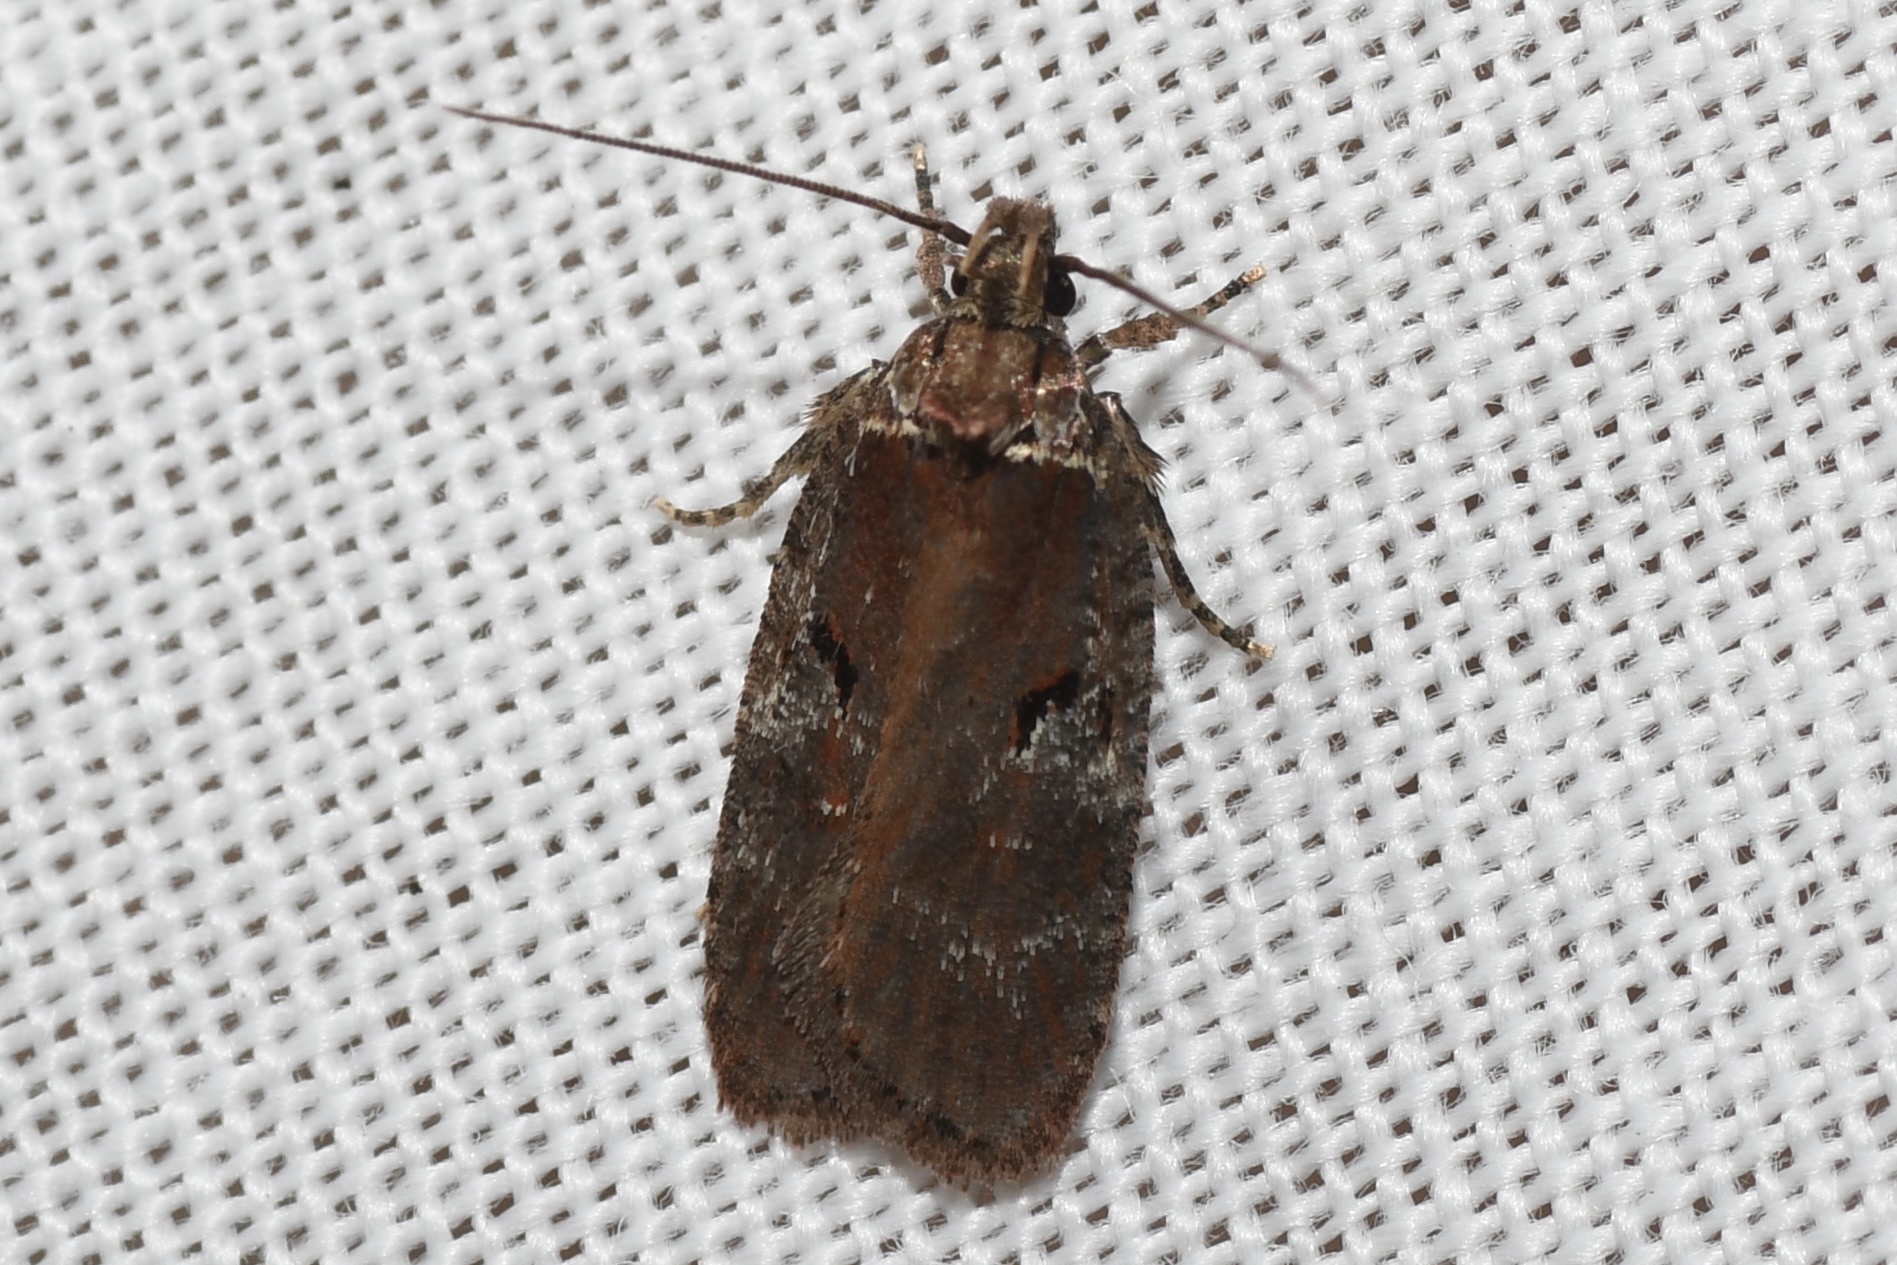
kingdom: Animalia
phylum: Arthropoda
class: Insecta
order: Lepidoptera
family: Depressariidae
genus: Agonopterix
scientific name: Agonopterix lythrella
